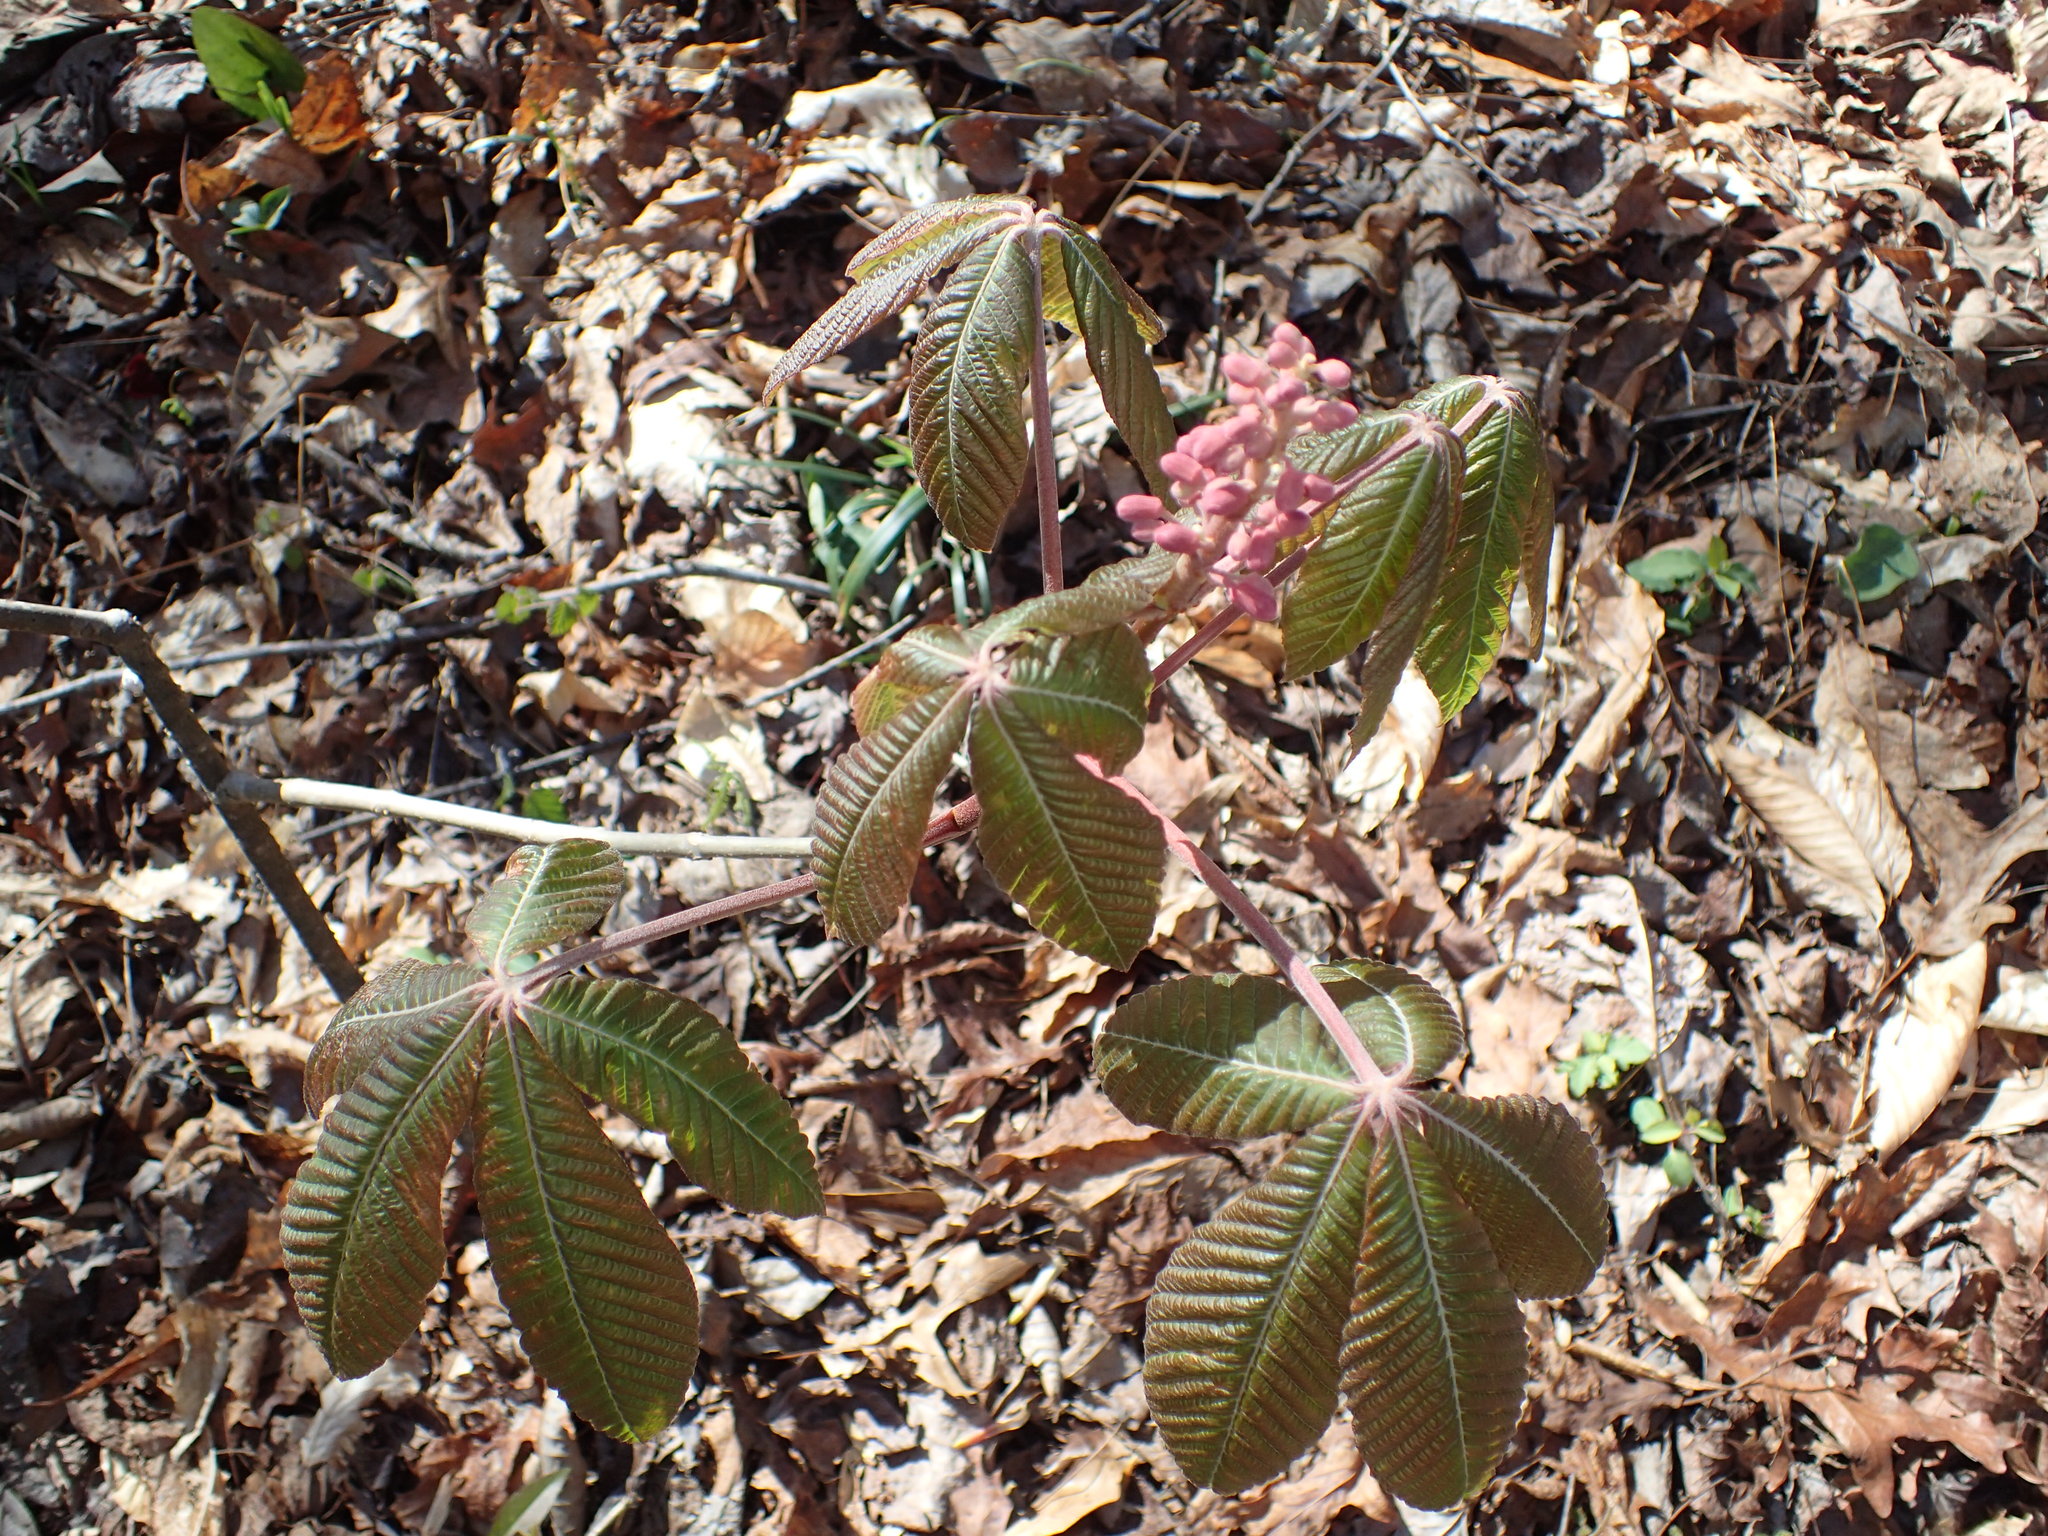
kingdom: Plantae
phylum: Tracheophyta
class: Magnoliopsida
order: Sapindales
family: Sapindaceae
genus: Aesculus
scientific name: Aesculus pavia
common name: Red buckeye
